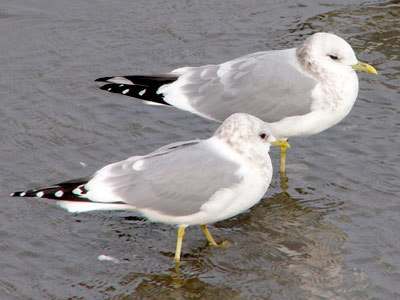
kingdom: Animalia
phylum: Chordata
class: Aves
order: Charadriiformes
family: Laridae
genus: Larus
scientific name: Larus brachyrhynchus
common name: Short-billed gull
